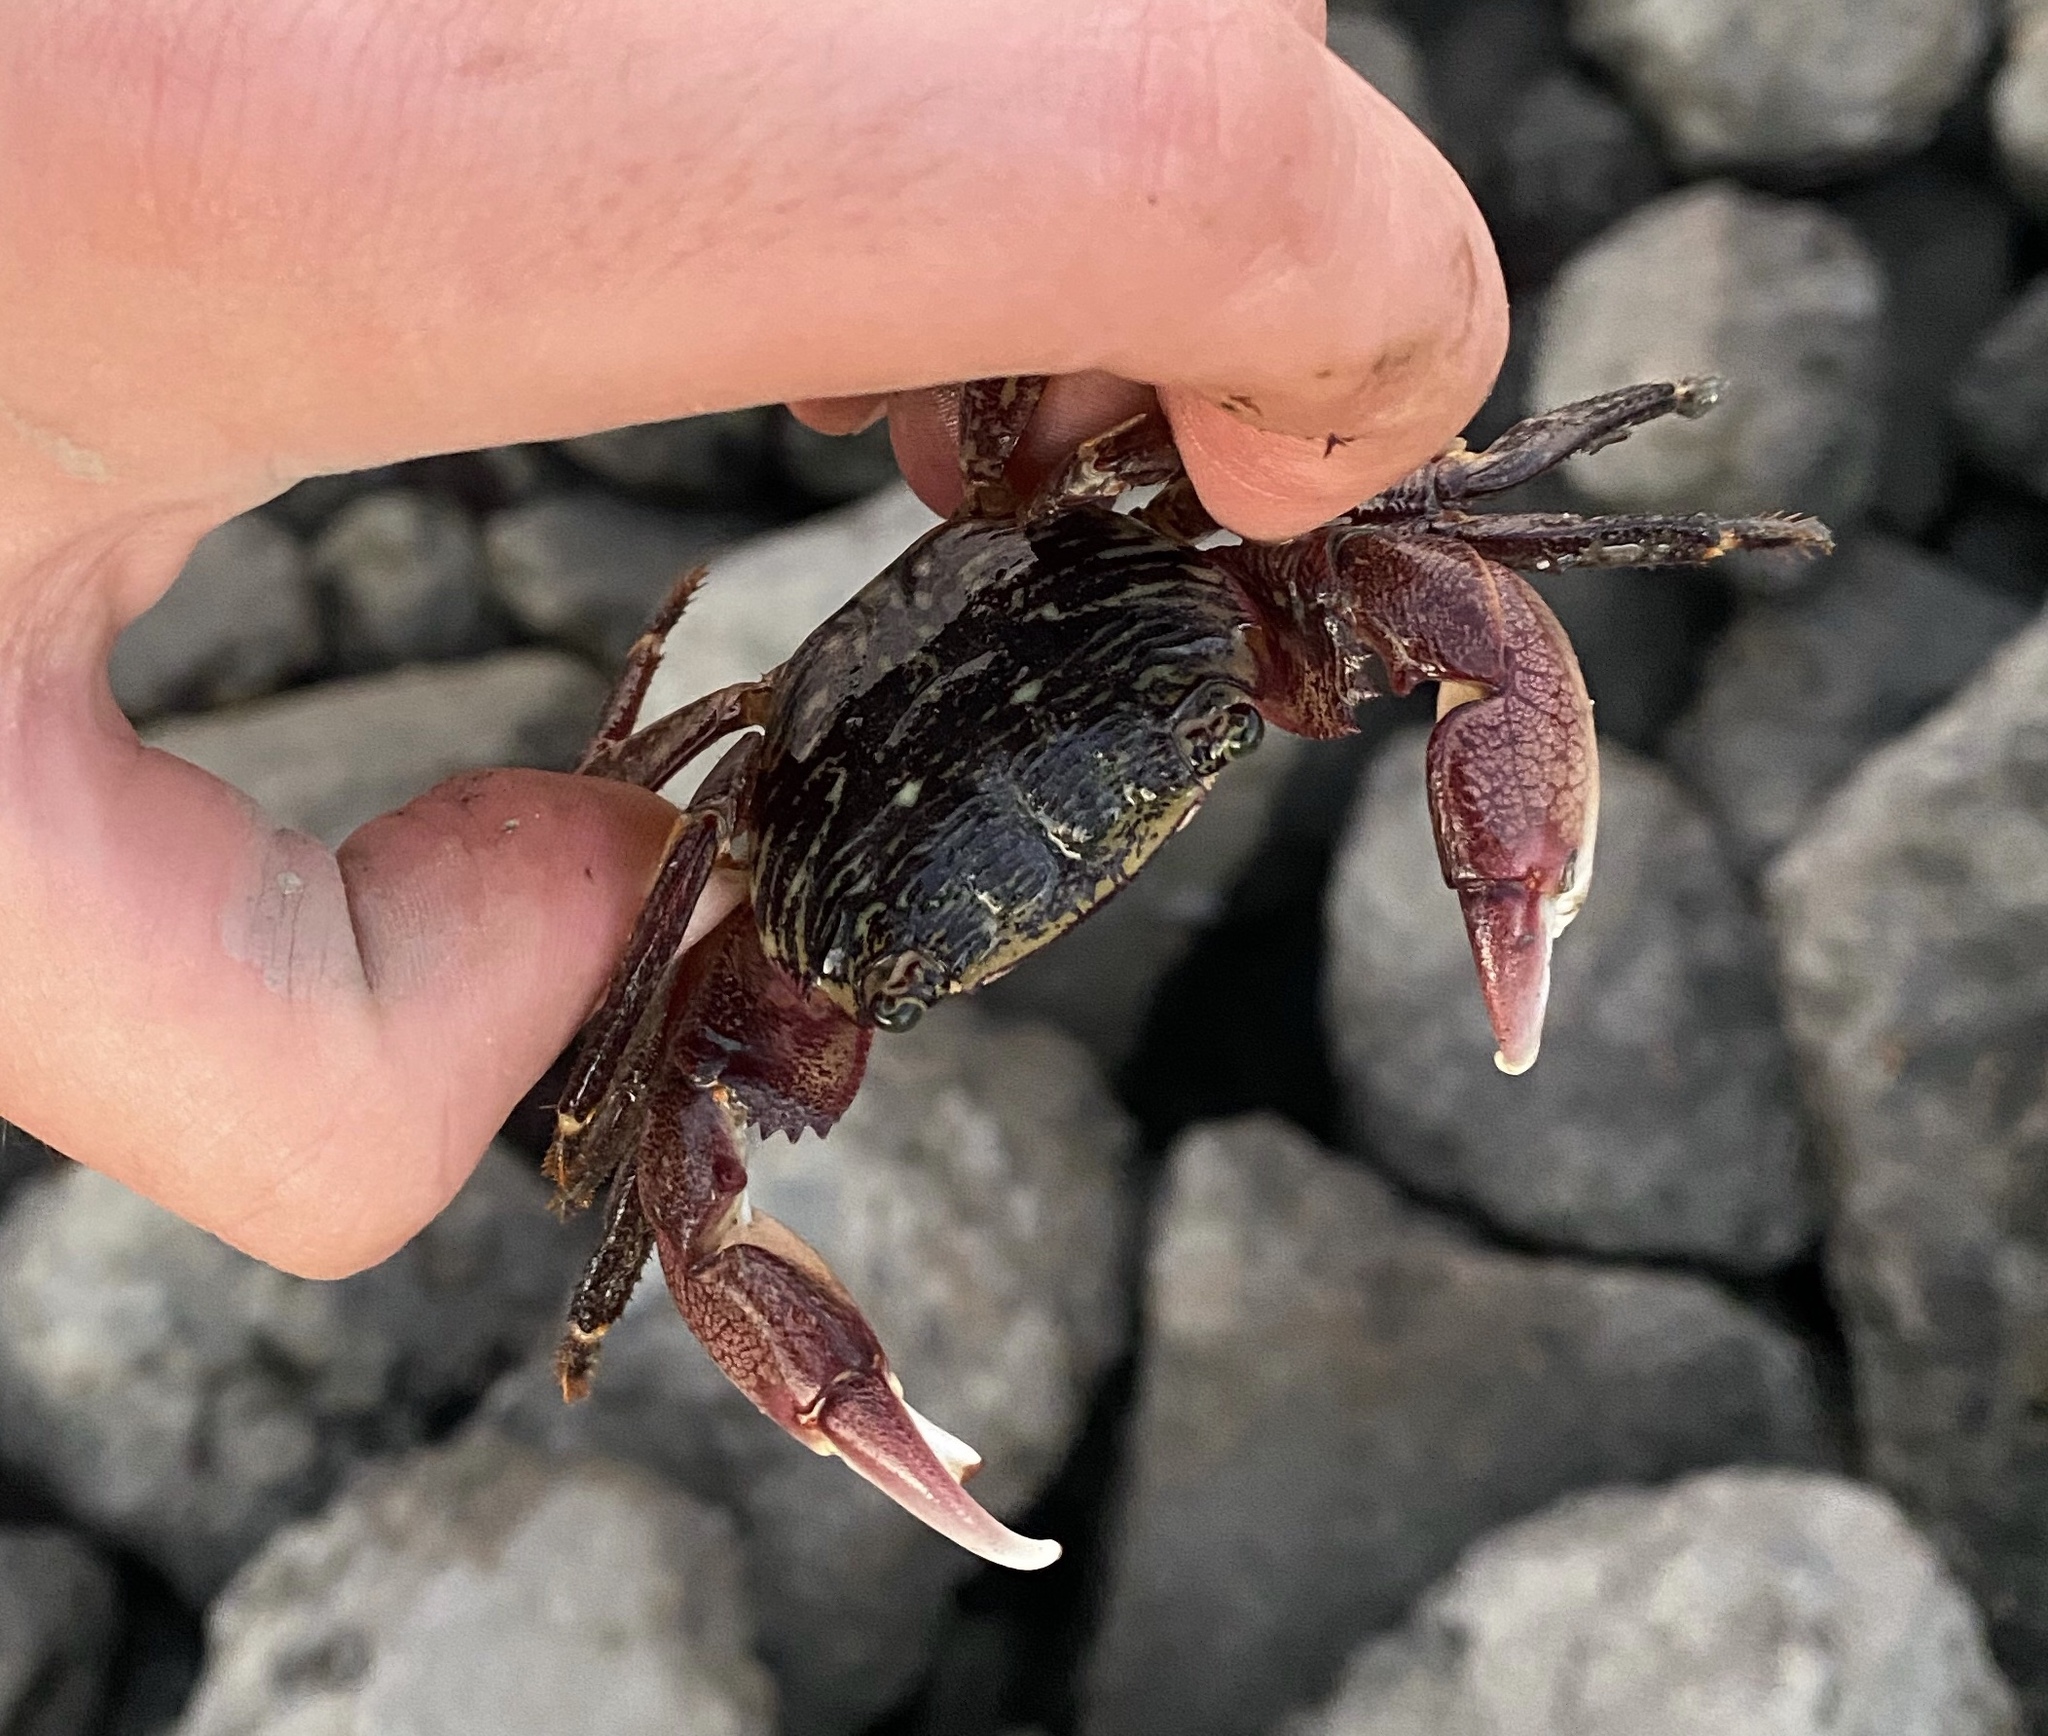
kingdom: Animalia
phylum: Arthropoda
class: Malacostraca
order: Decapoda
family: Grapsidae
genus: Pachygrapsus
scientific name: Pachygrapsus crassipes
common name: Striped shore crab
